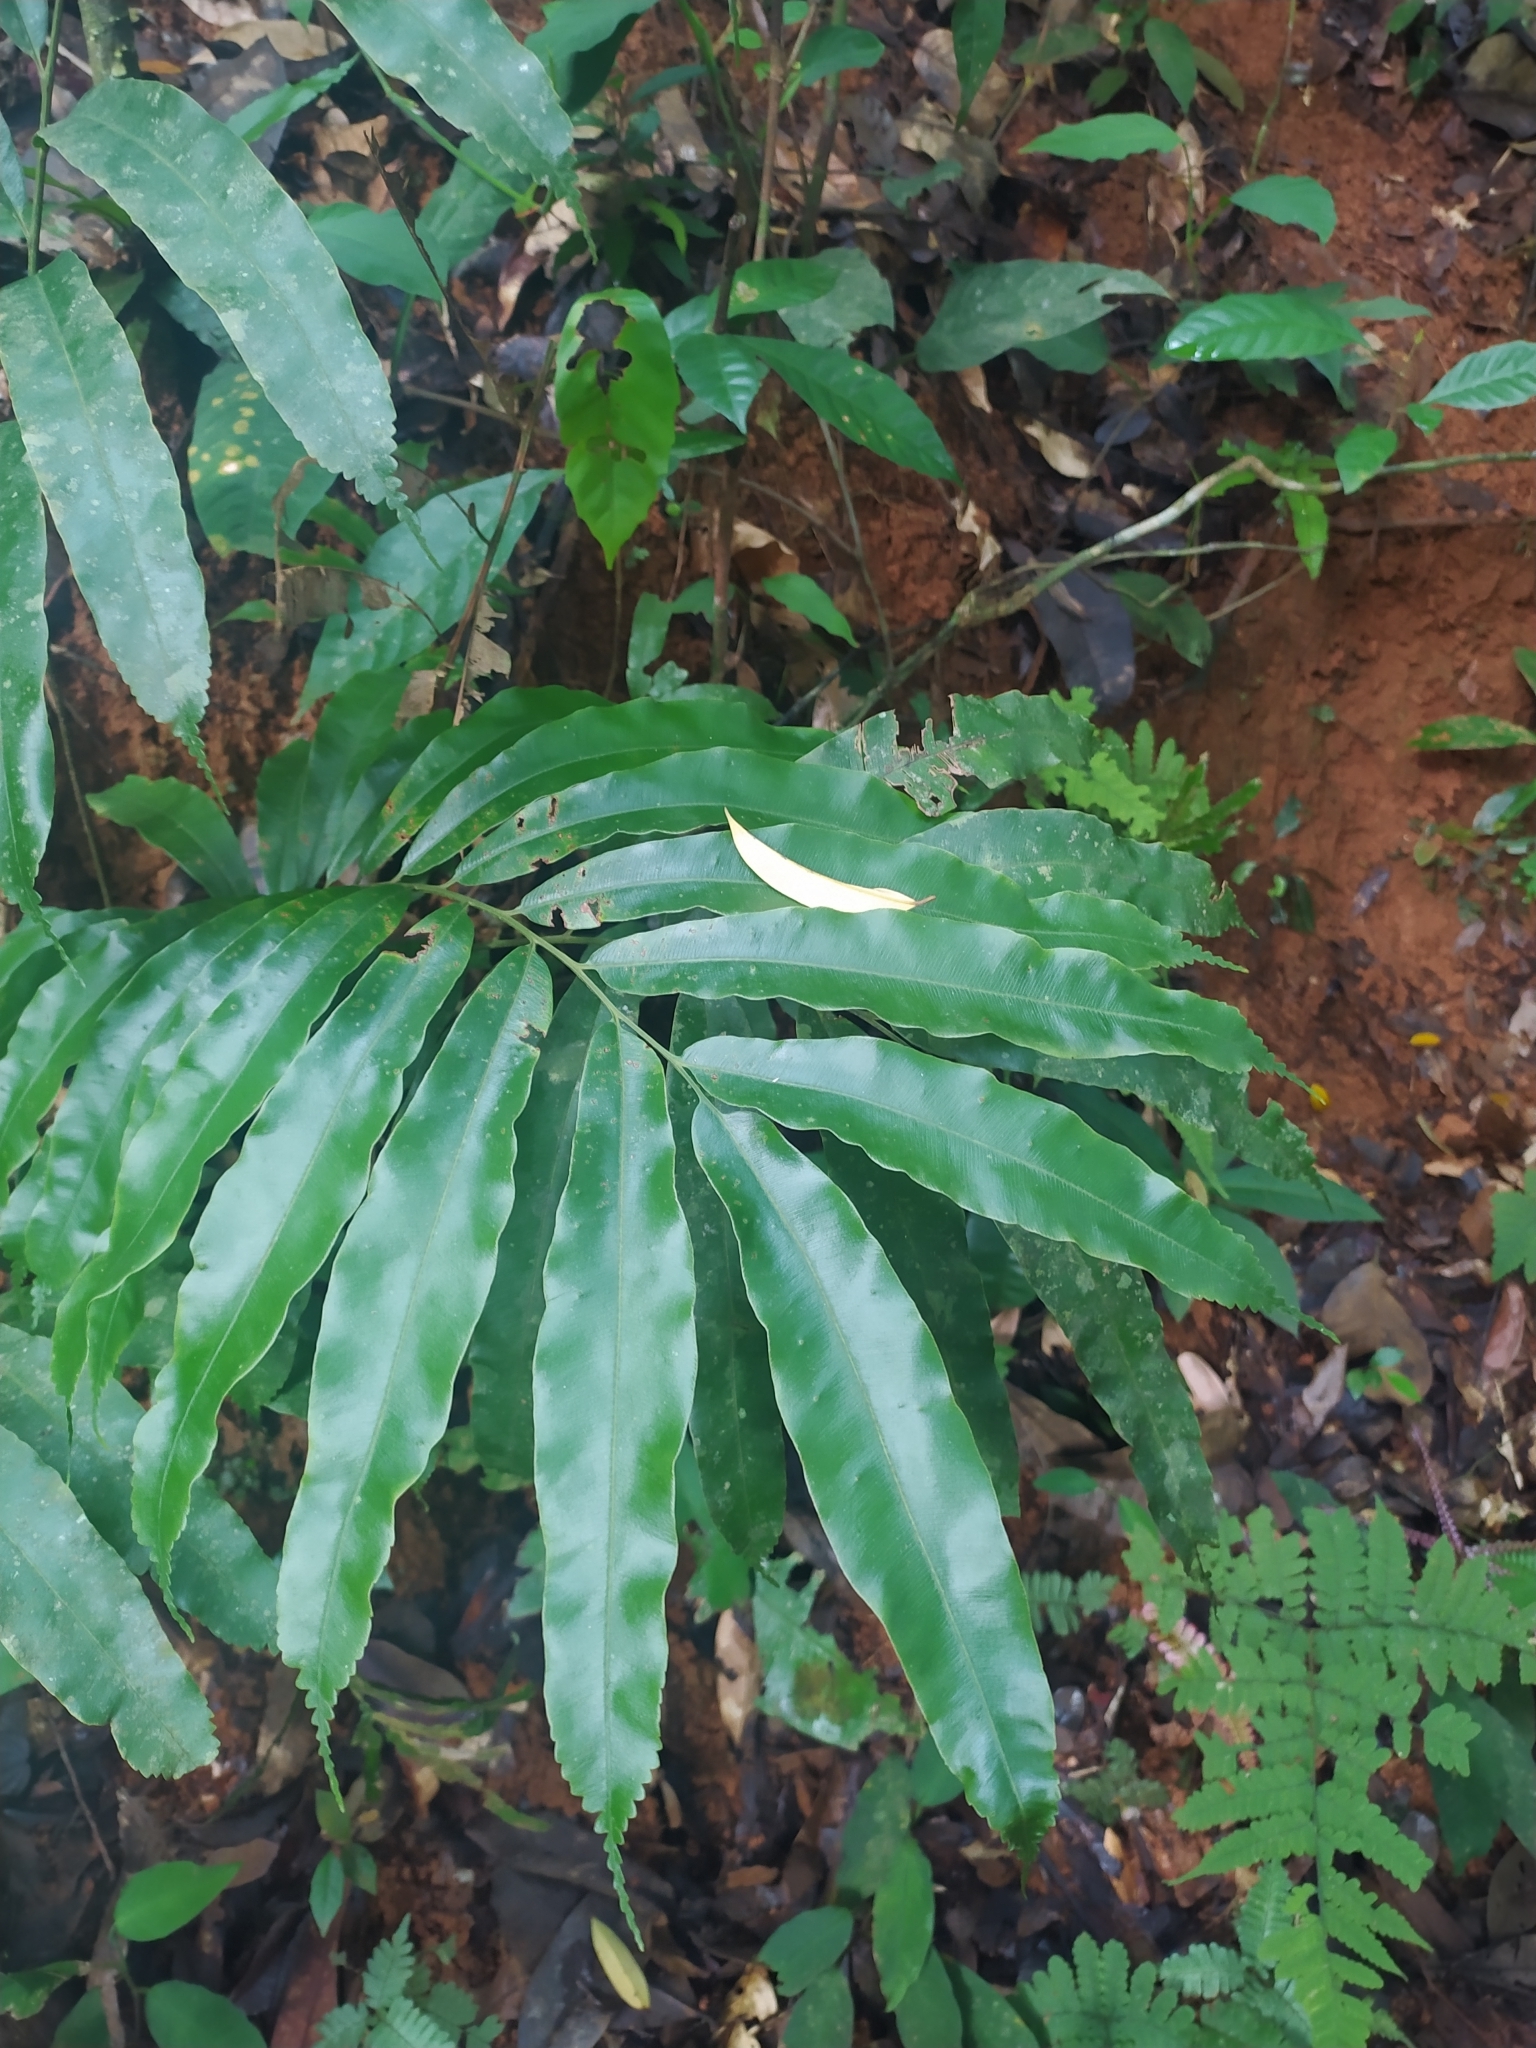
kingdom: Plantae
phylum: Tracheophyta
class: Polypodiopsida
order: Cyatheales
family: Metaxyaceae
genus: Metaxya
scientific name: Metaxya scalaris
